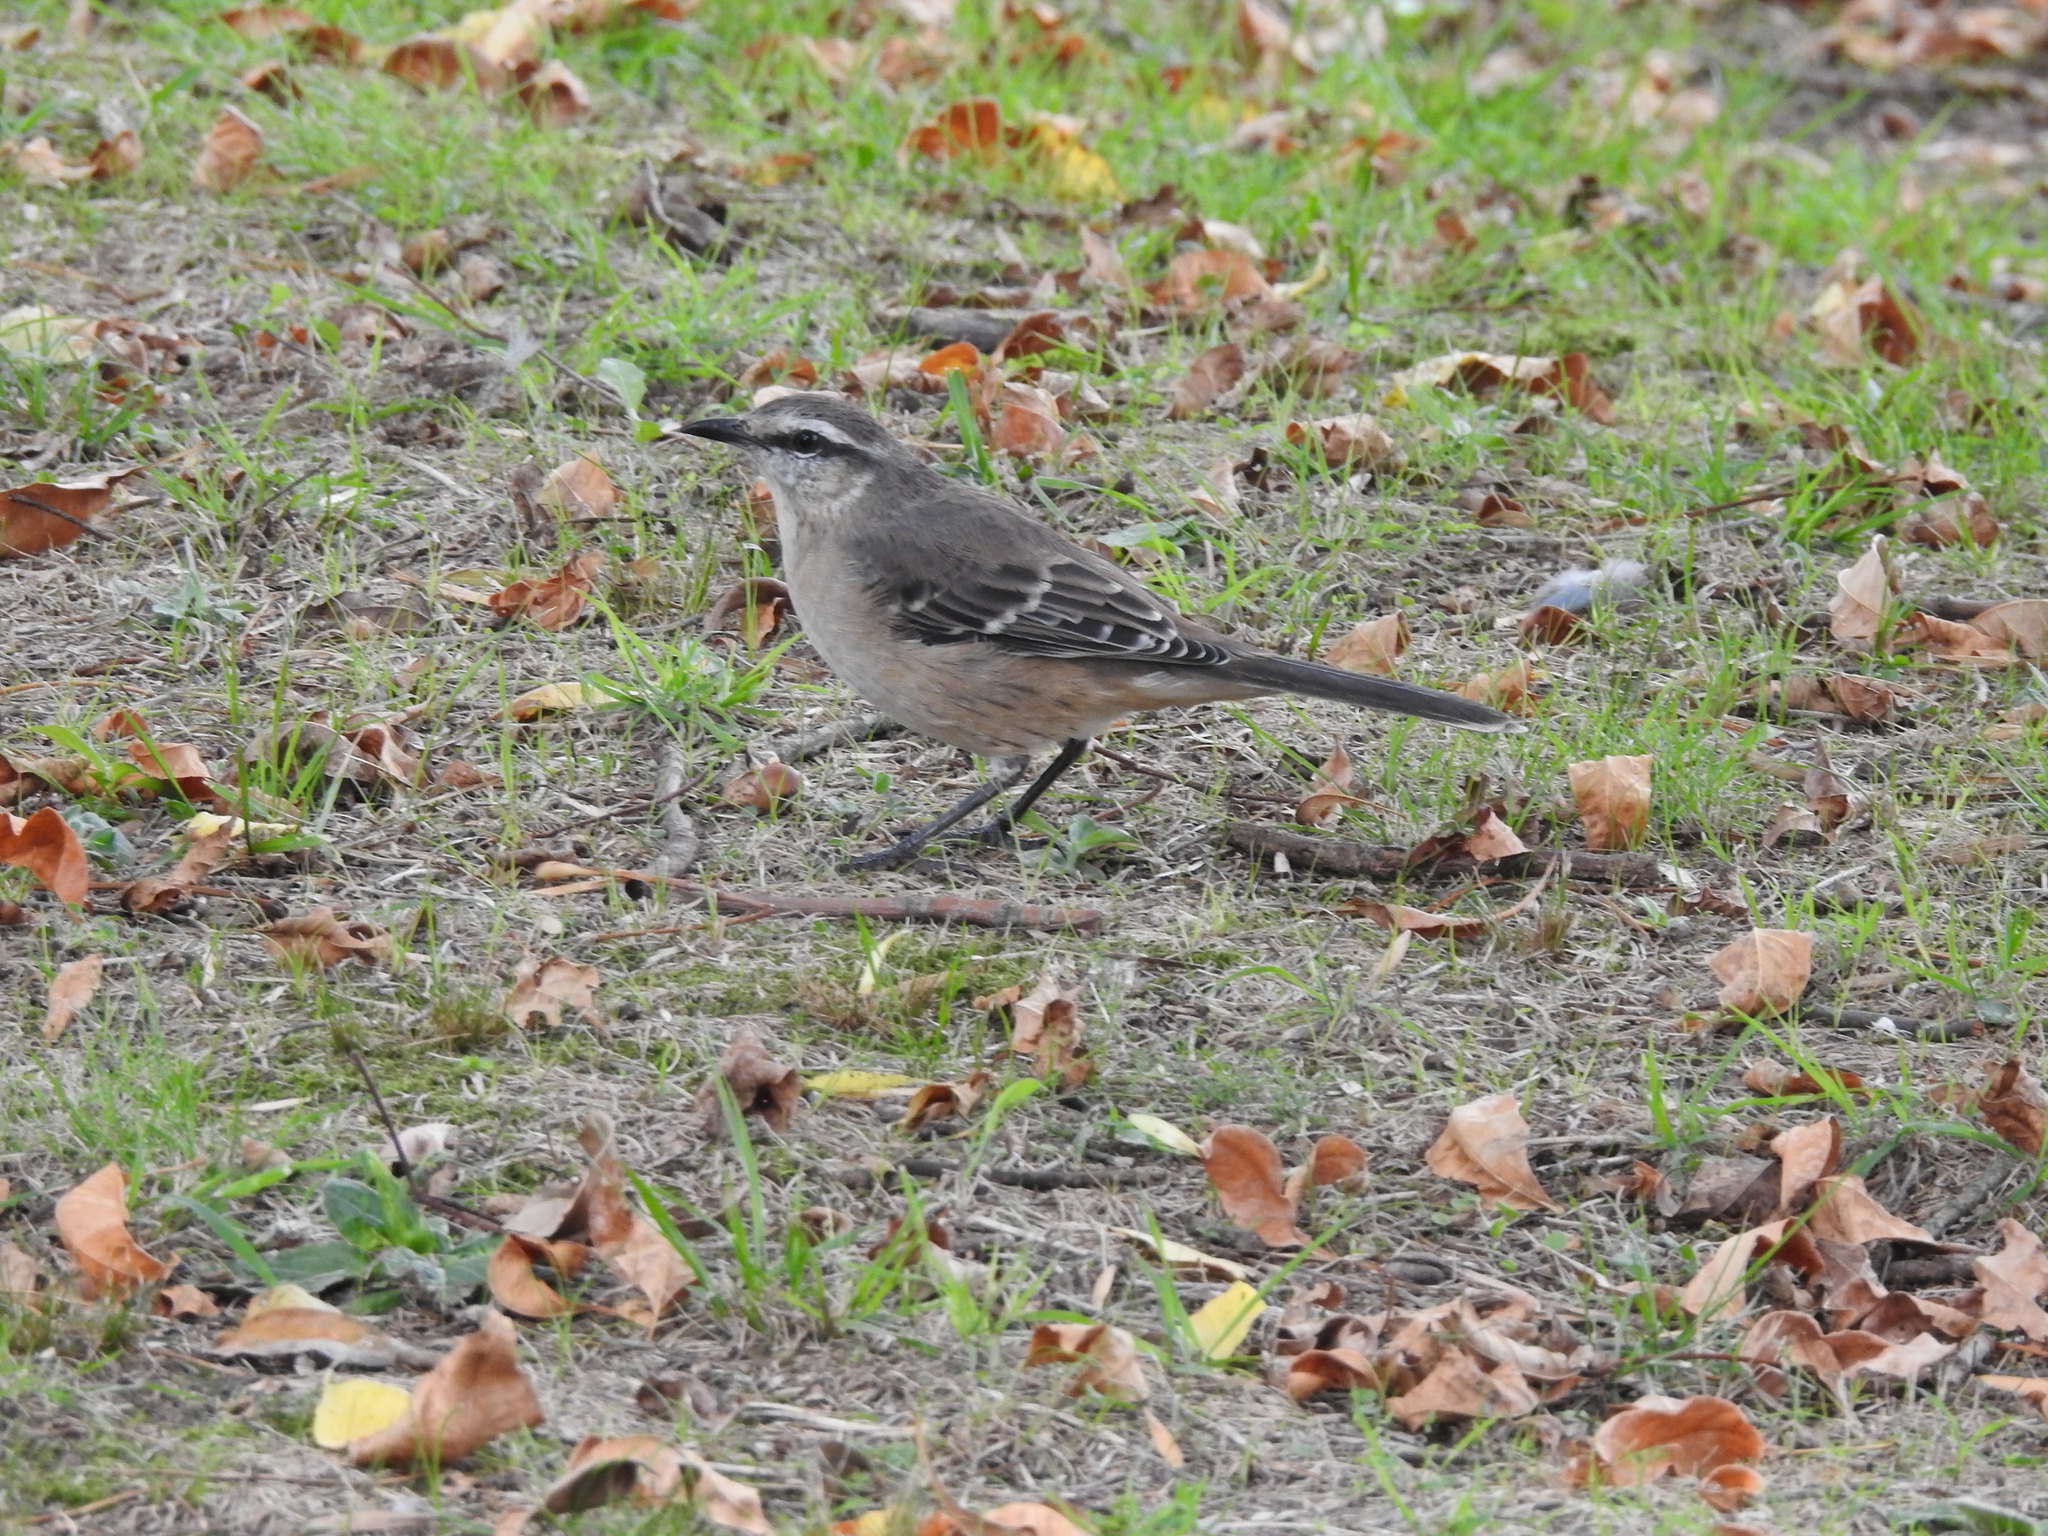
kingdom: Animalia
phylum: Chordata
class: Aves
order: Passeriformes
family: Mimidae
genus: Mimus
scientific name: Mimus saturninus
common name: Chalk-browed mockingbird
